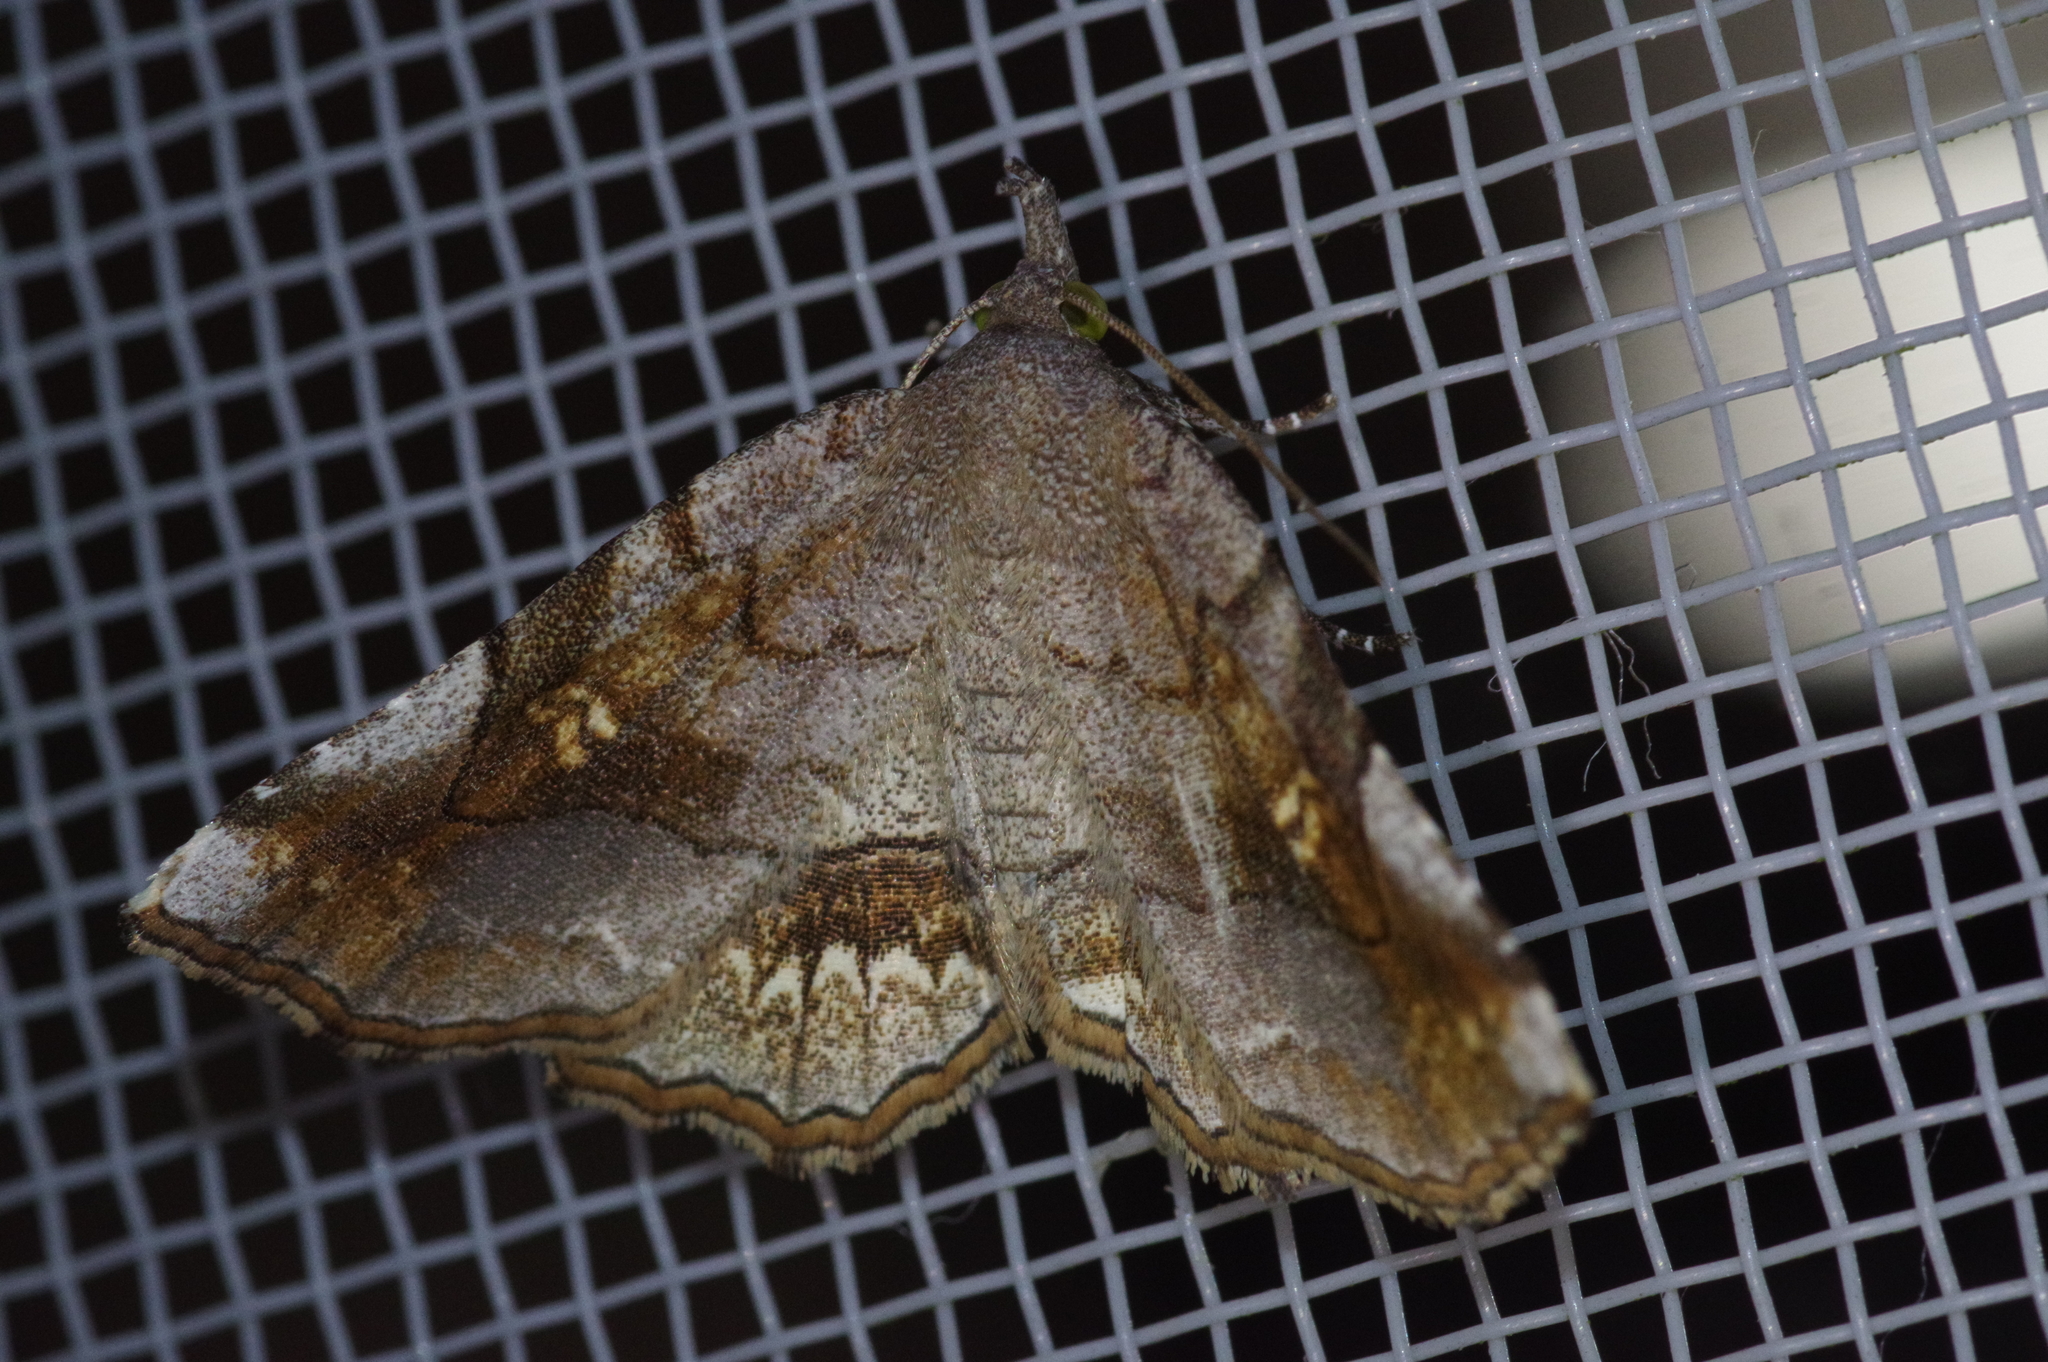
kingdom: Animalia
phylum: Arthropoda
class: Insecta
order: Lepidoptera
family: Erebidae
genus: Pangrapta
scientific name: Pangrapta flavomacula
